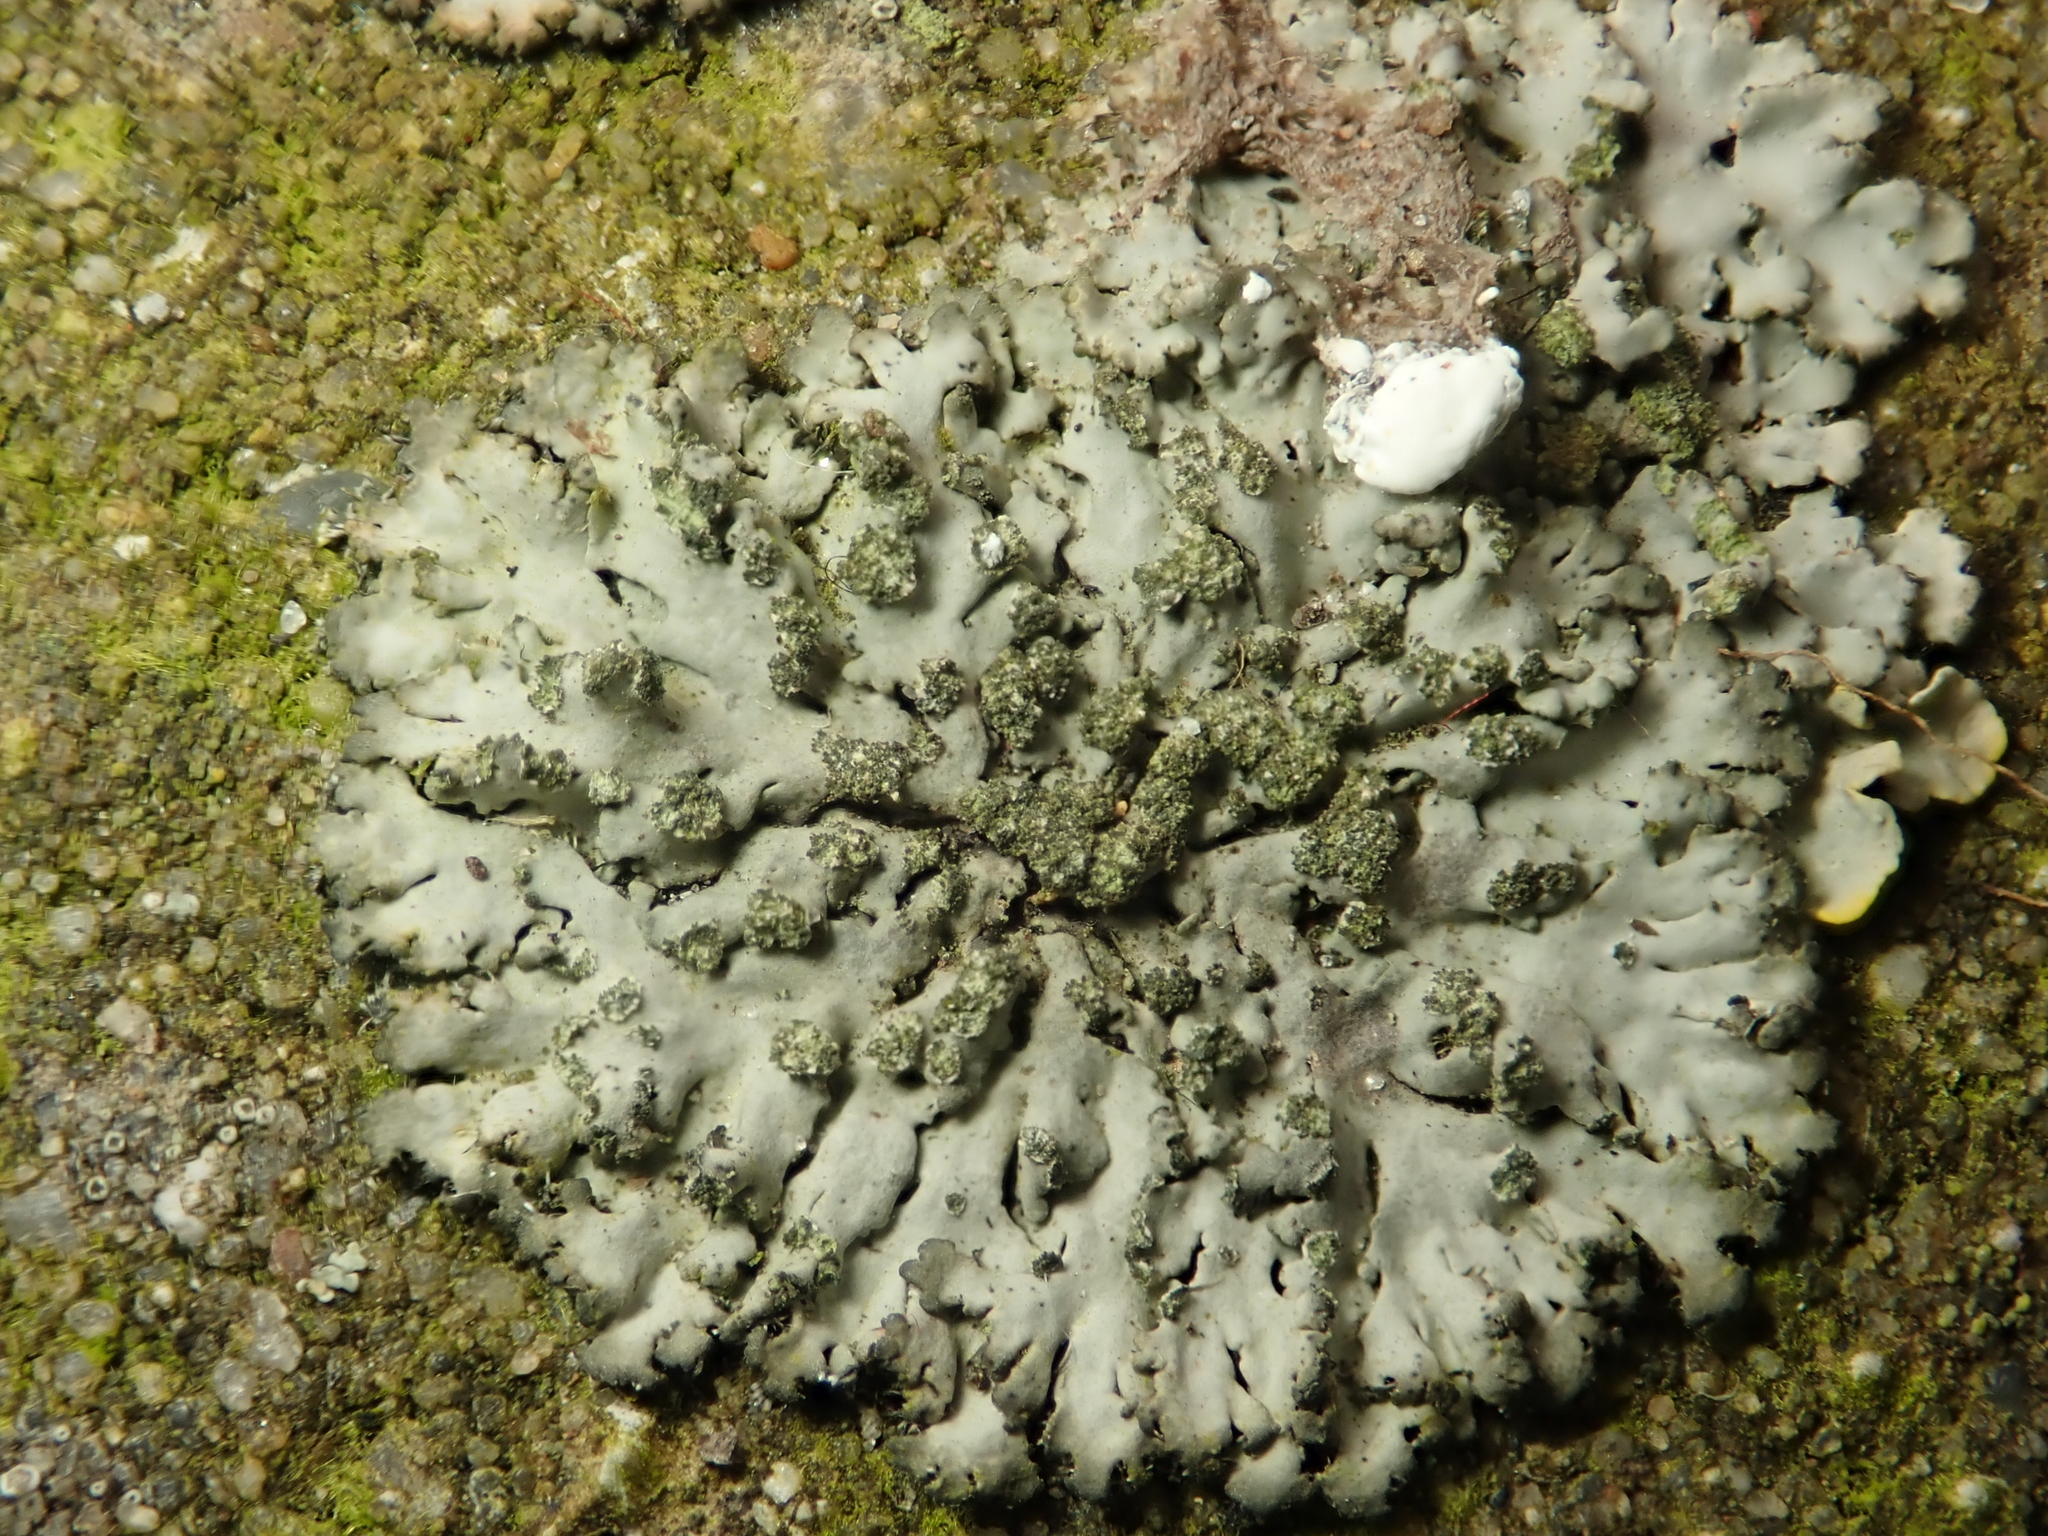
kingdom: Fungi
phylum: Ascomycota
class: Lecanoromycetes
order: Caliciales
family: Physciaceae
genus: Phaeophyscia
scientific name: Phaeophyscia orbicularis
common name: Mealy shadow lichen
